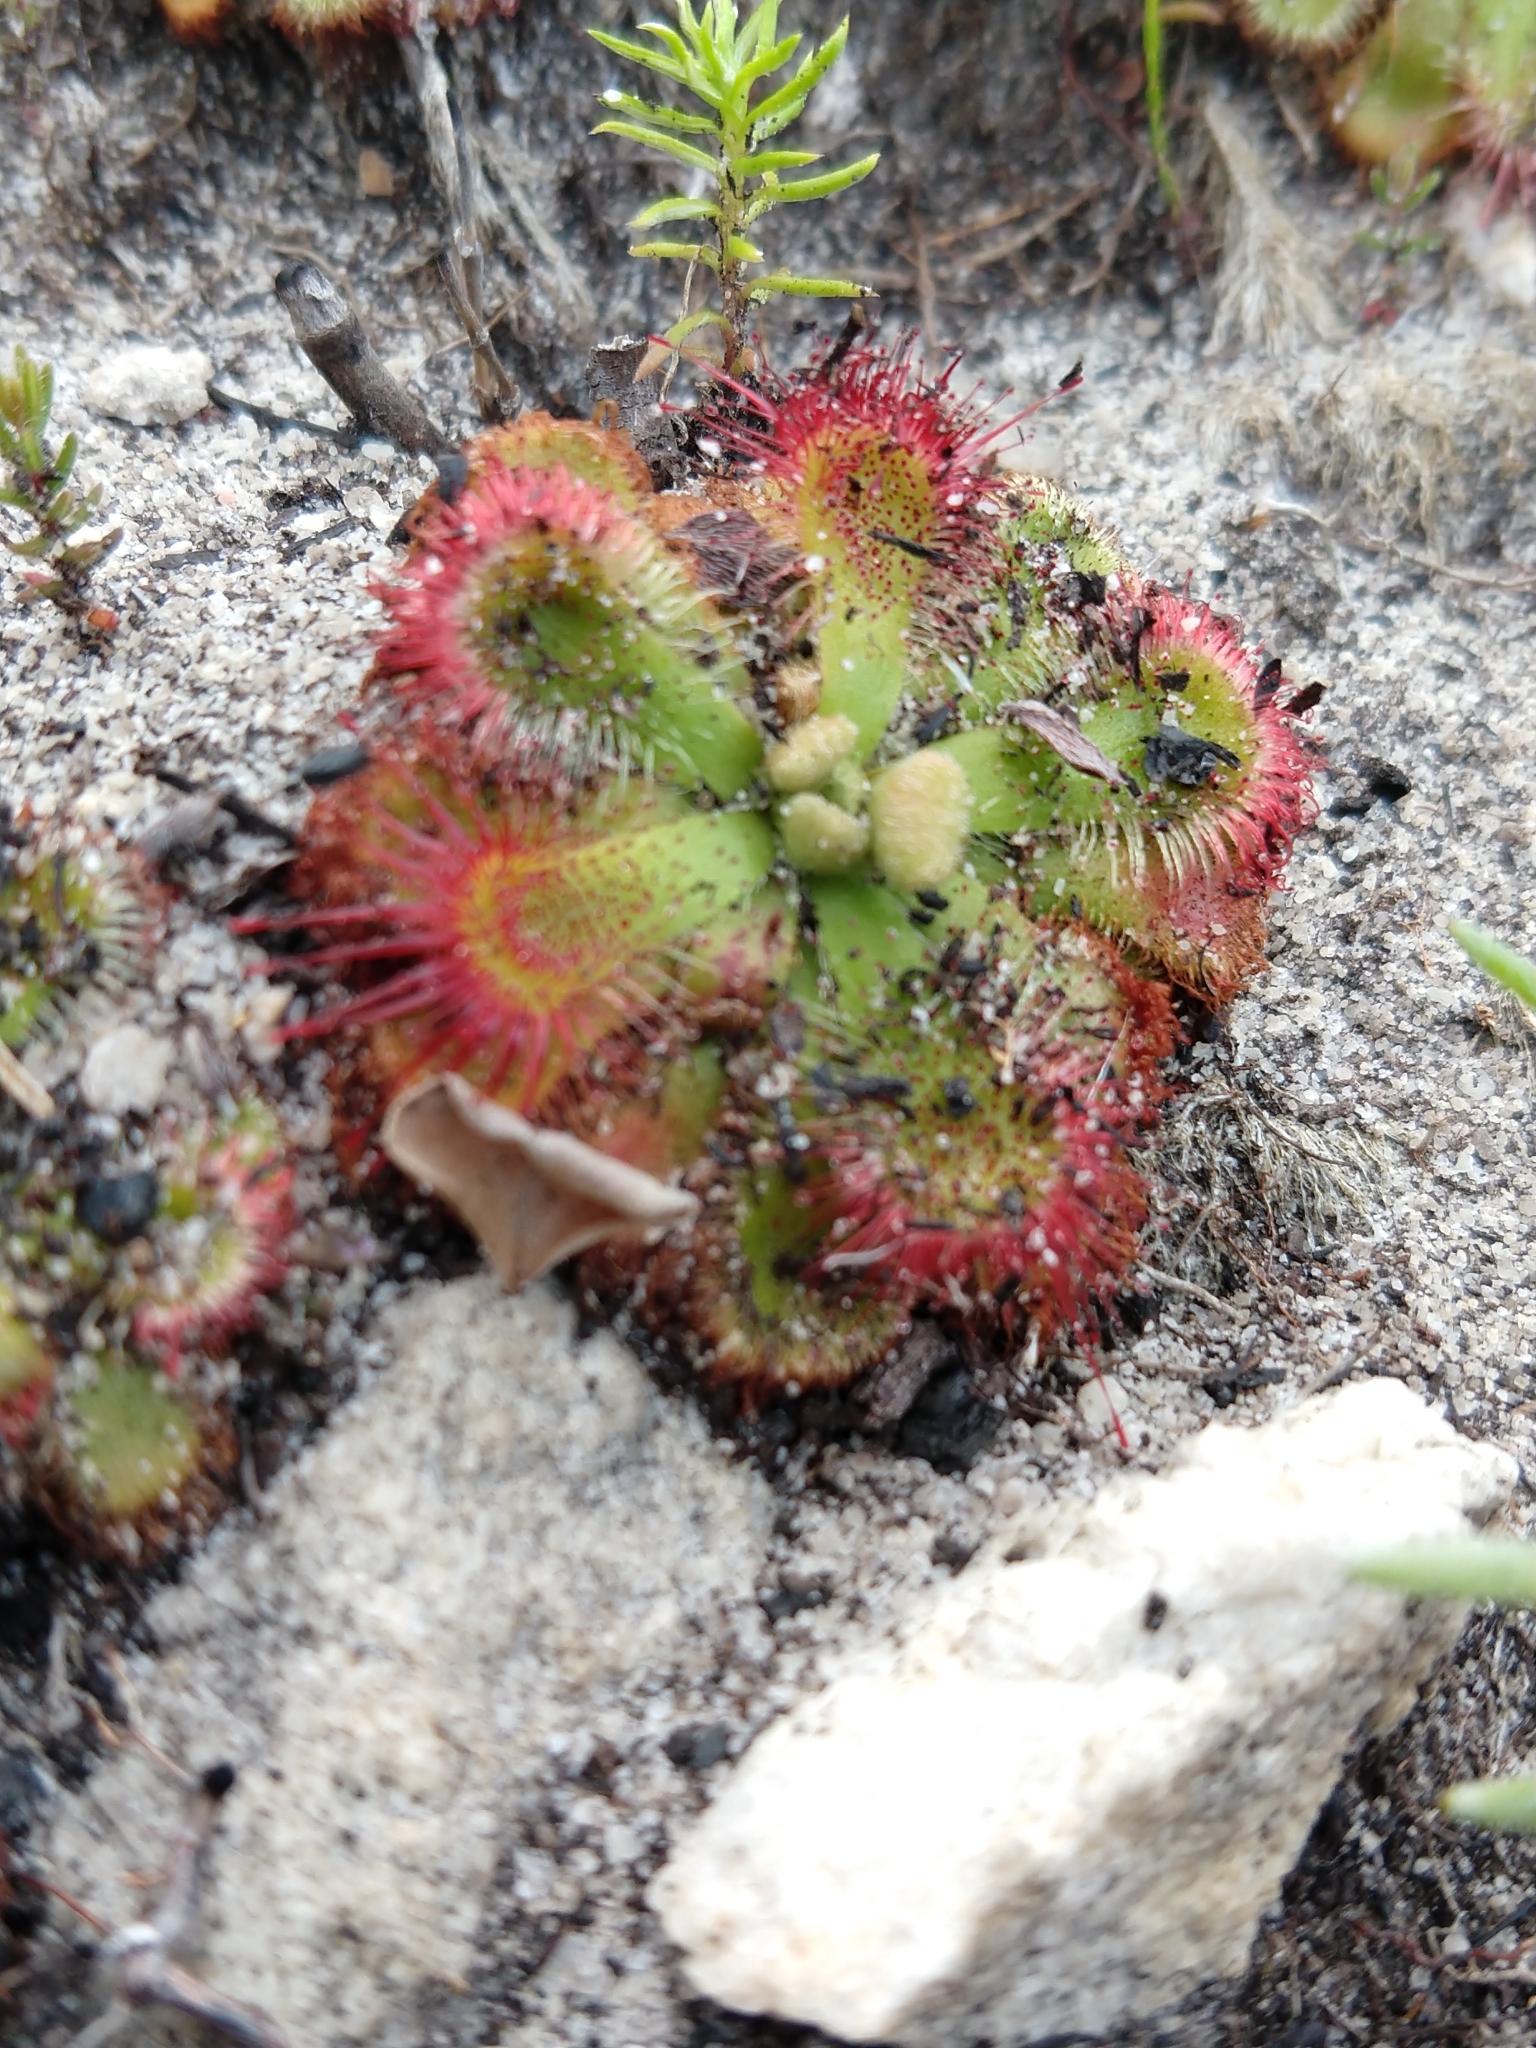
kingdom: Plantae
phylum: Tracheophyta
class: Magnoliopsida
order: Caryophyllales
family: Droseraceae
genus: Drosera
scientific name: Drosera xerophila
